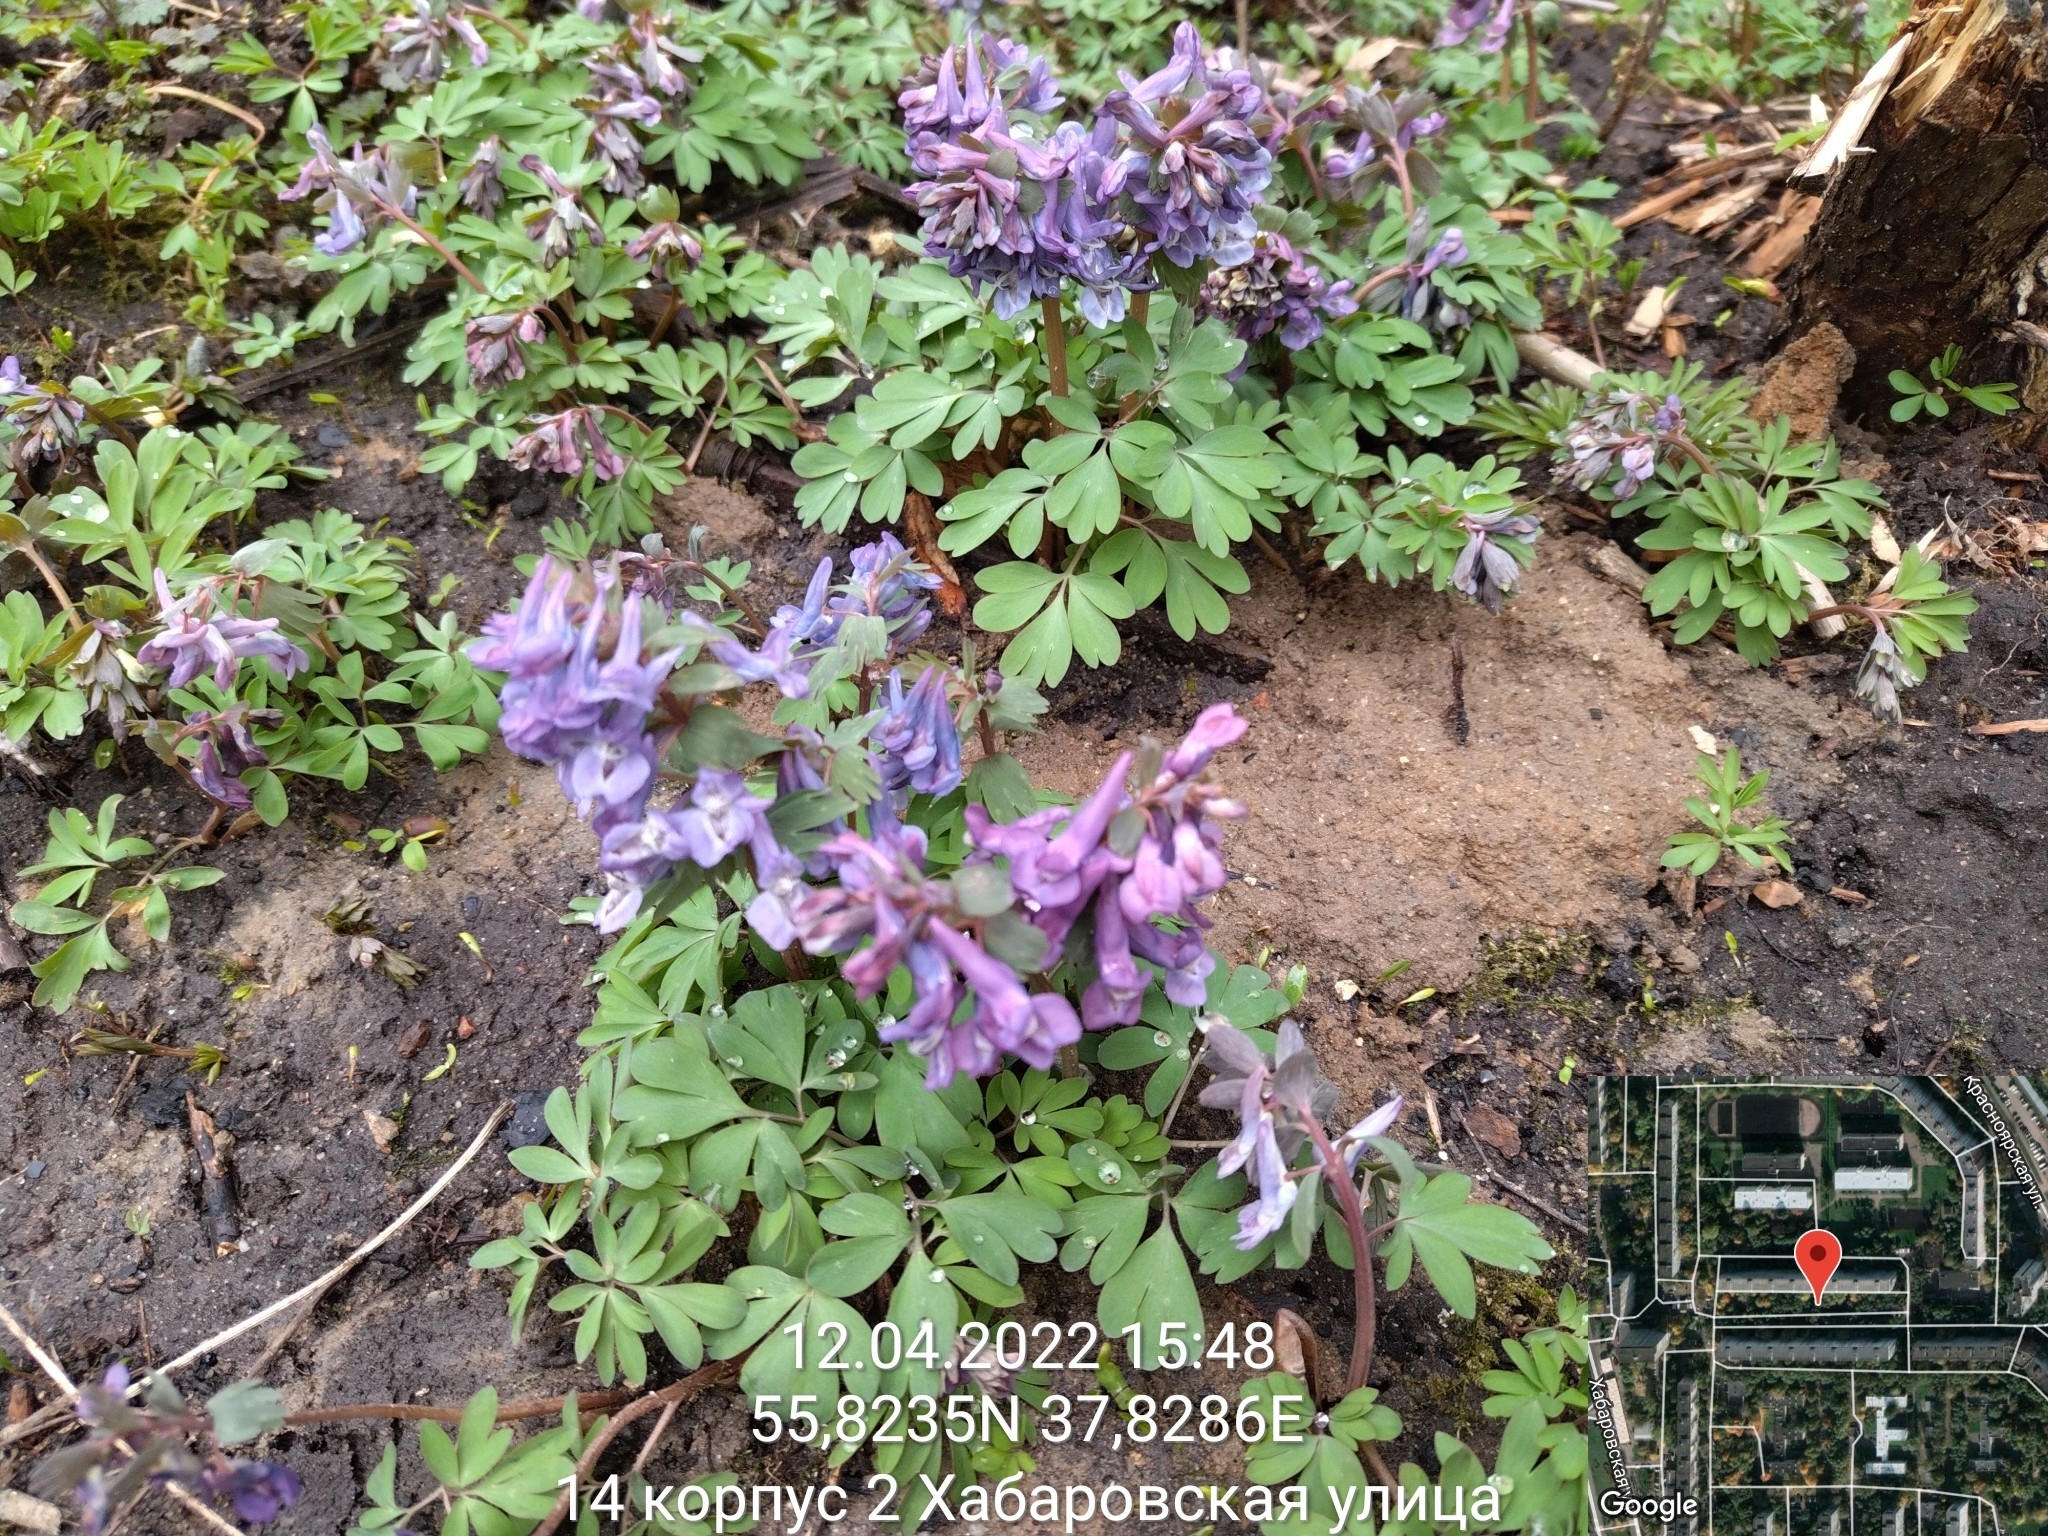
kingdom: Plantae
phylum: Tracheophyta
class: Magnoliopsida
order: Ranunculales
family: Papaveraceae
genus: Corydalis
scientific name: Corydalis solida
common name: Bird-in-a-bush
